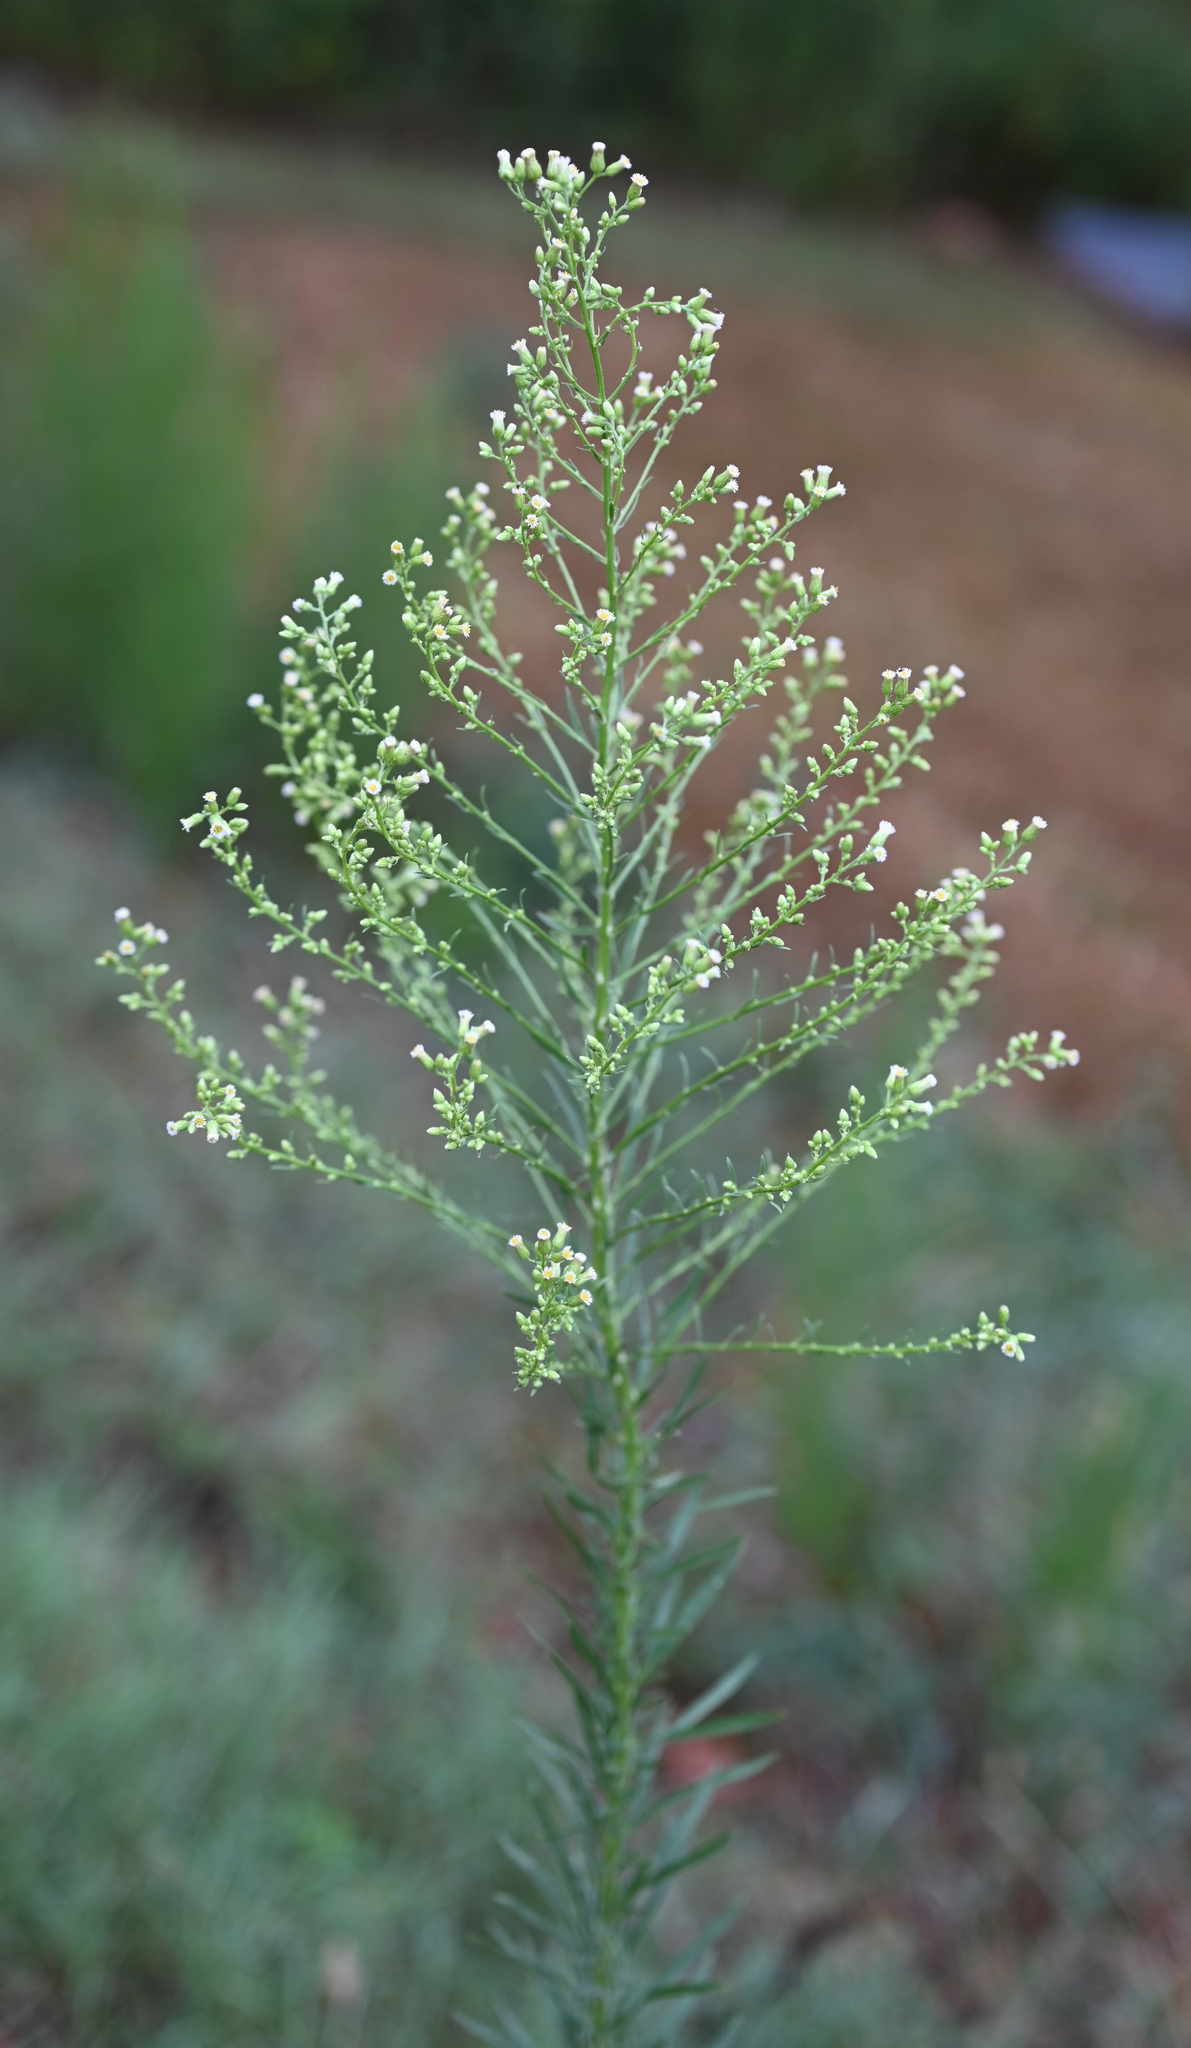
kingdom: Plantae
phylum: Tracheophyta
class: Magnoliopsida
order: Asterales
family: Asteraceae
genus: Erigeron
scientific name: Erigeron canadensis
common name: Canadian fleabane
